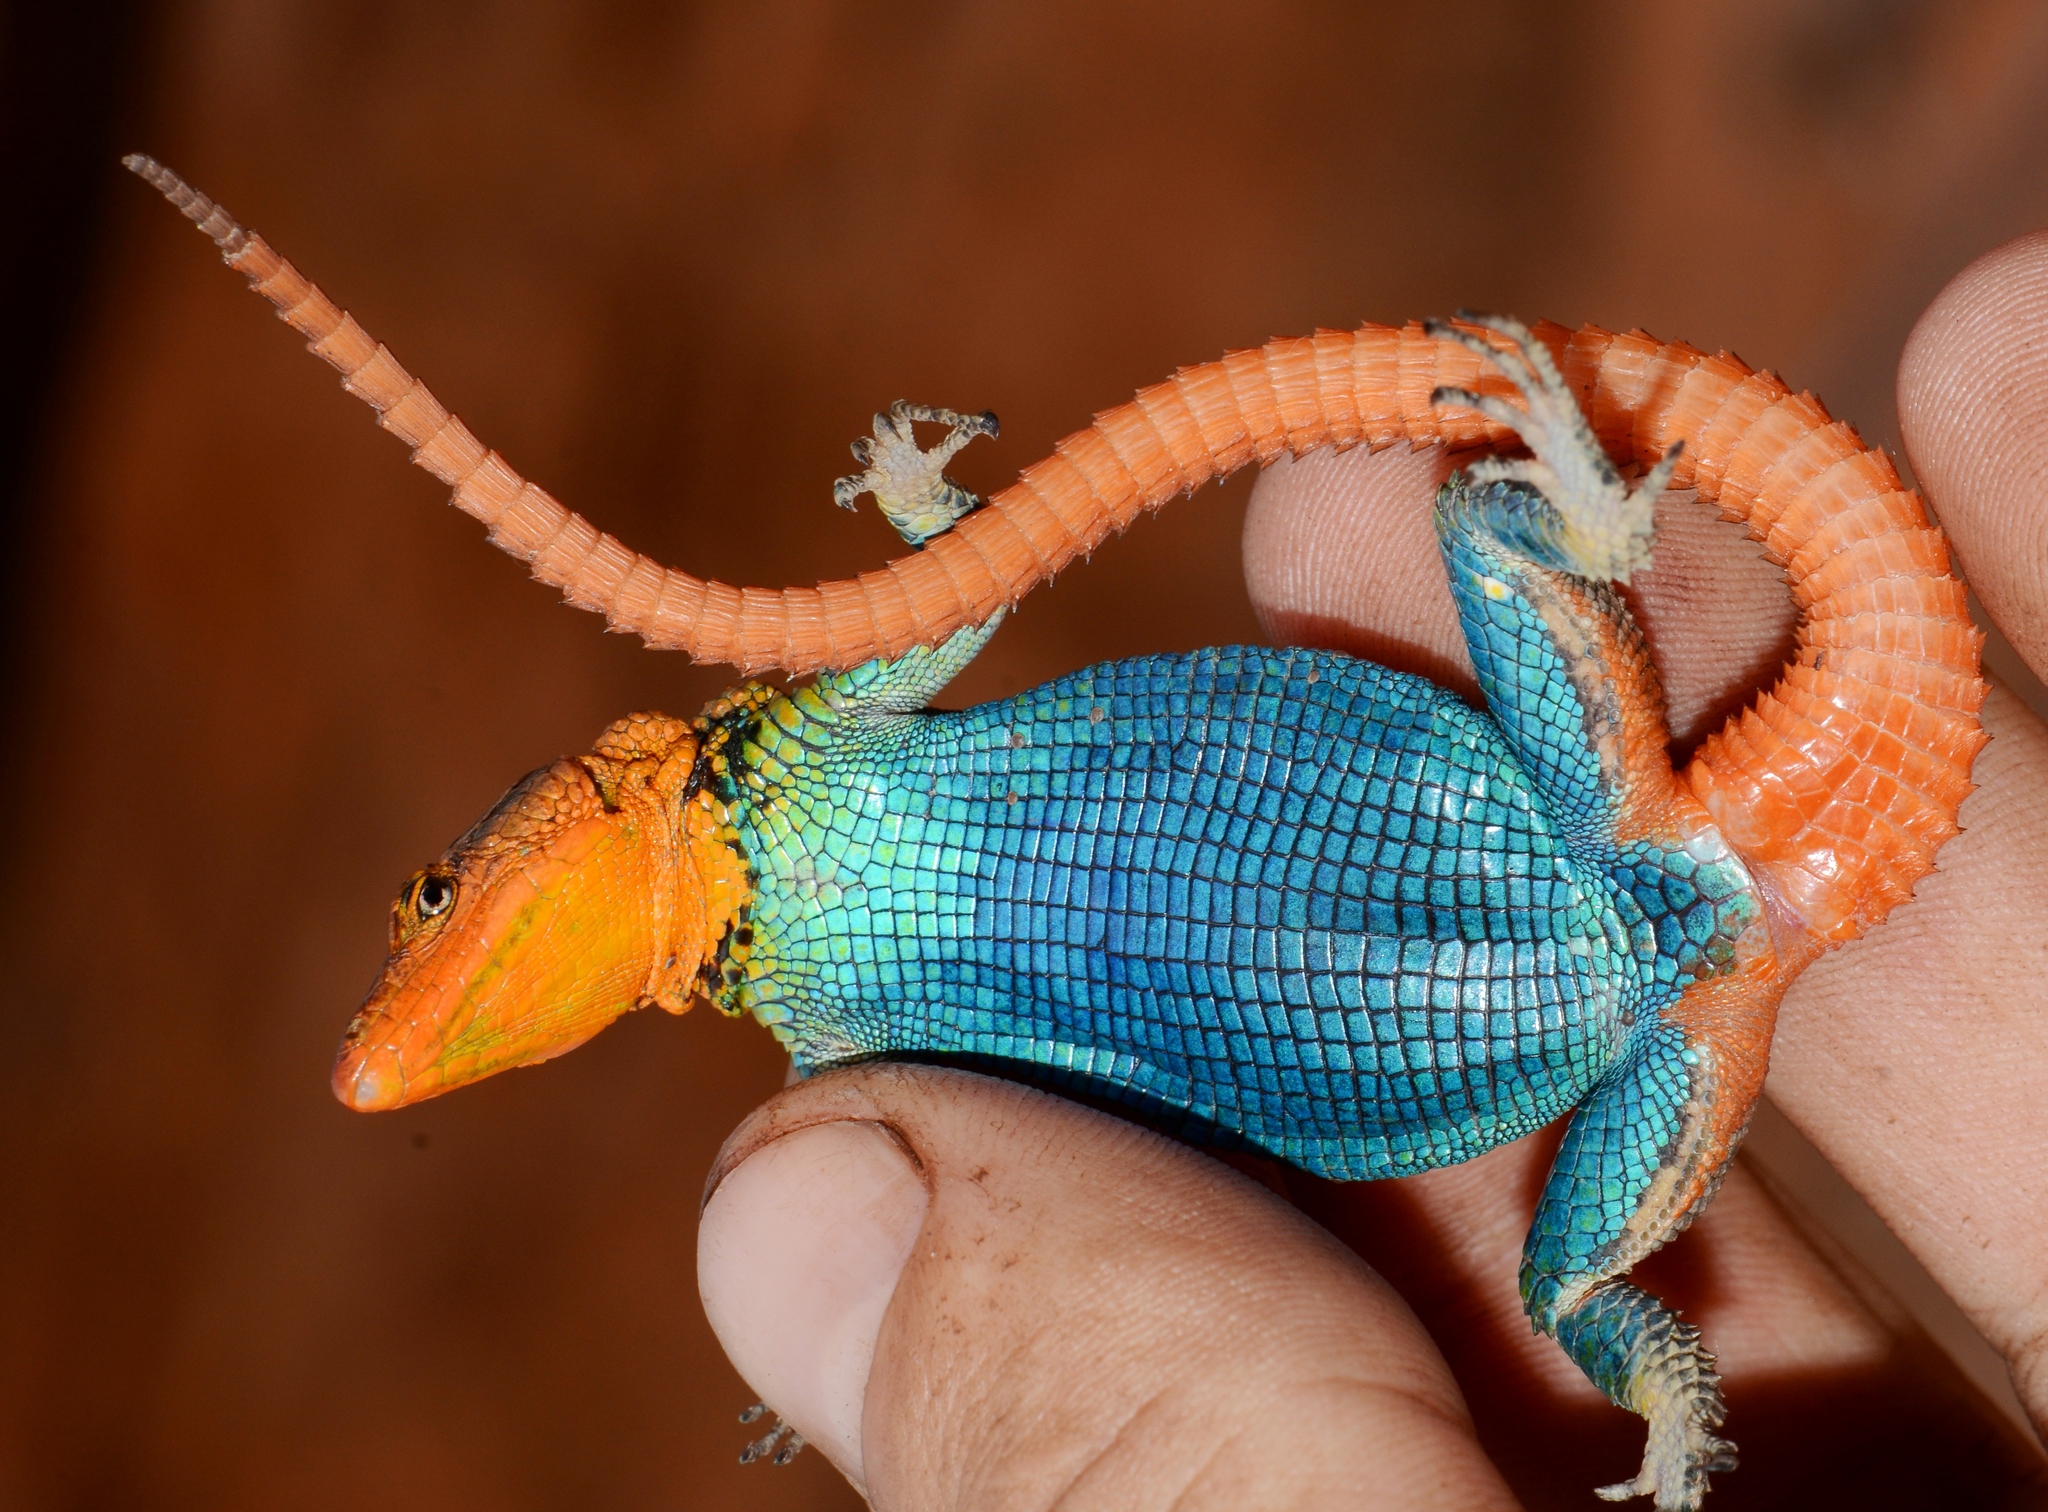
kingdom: Animalia
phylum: Chordata
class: Squamata
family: Cordylidae
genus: Platysaurus
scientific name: Platysaurus monotropis
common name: Orange-throated flat lizard
